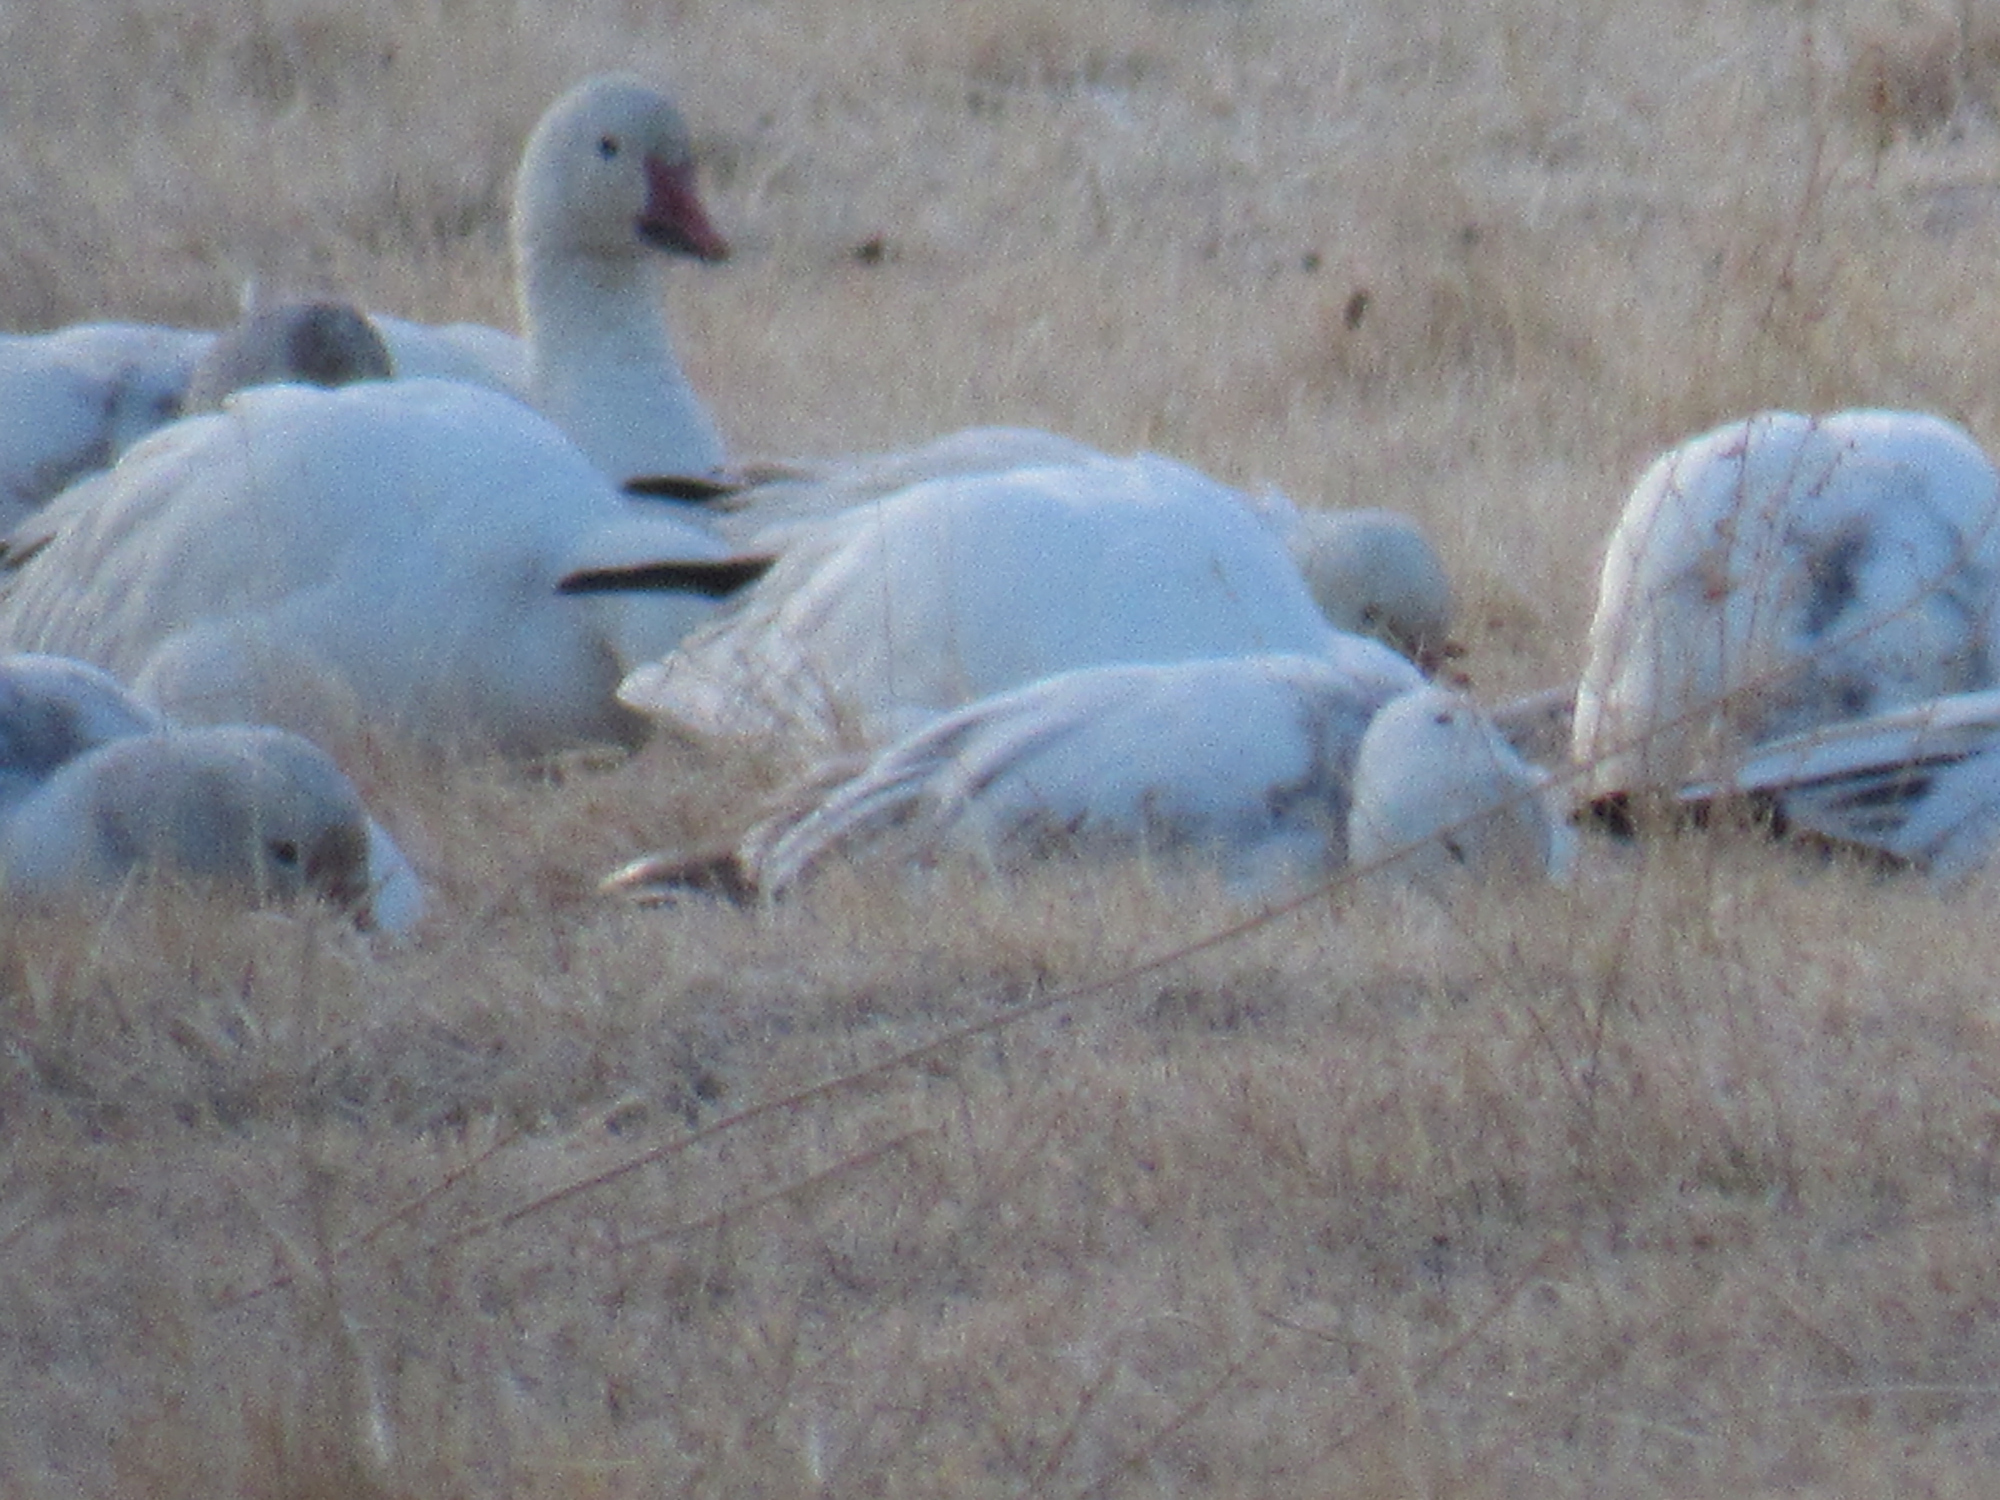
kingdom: Animalia
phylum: Chordata
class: Aves
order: Anseriformes
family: Anatidae
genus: Anser
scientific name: Anser caerulescens
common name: Snow goose
